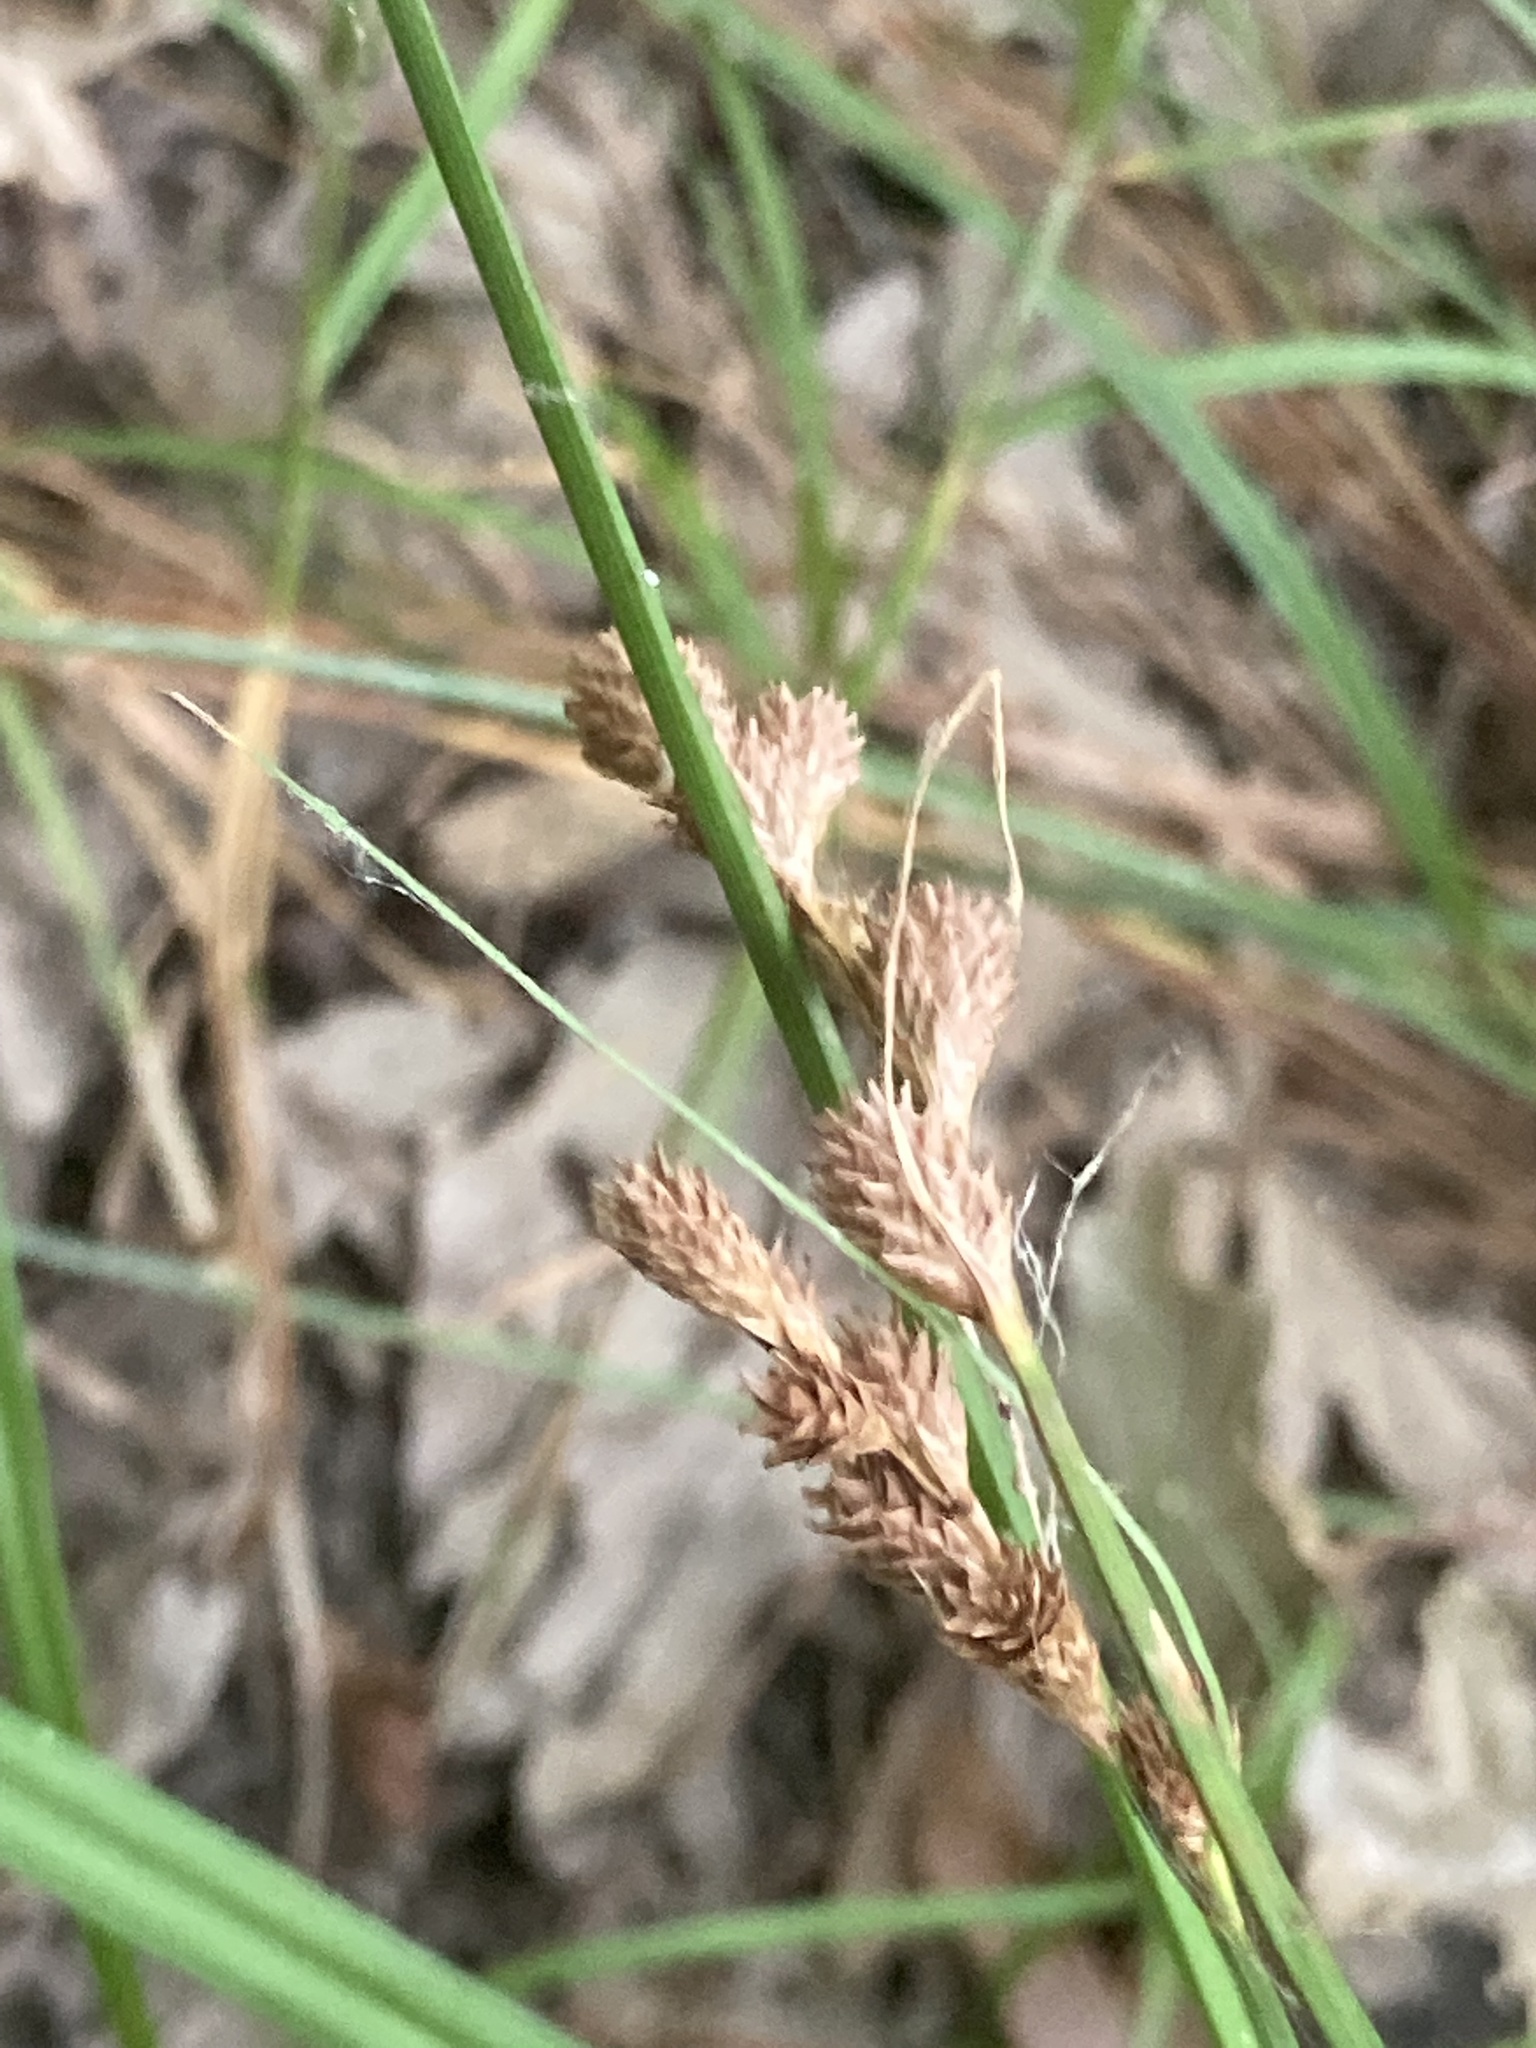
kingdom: Plantae
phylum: Tracheophyta
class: Liliopsida
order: Poales
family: Cyperaceae
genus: Carex
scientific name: Carex tribuloides
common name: Blunt broom sedge
